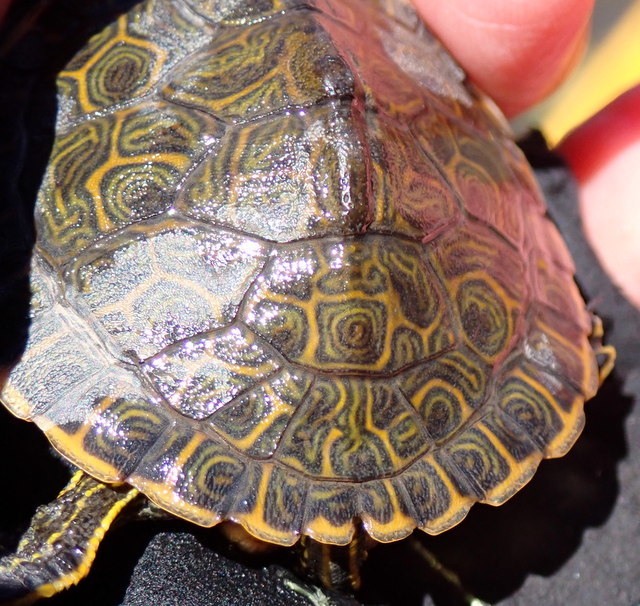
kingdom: Animalia
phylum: Chordata
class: Testudines
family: Emydidae
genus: Pseudemys
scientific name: Pseudemys nelsoni
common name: Florida red-bellied turtle
